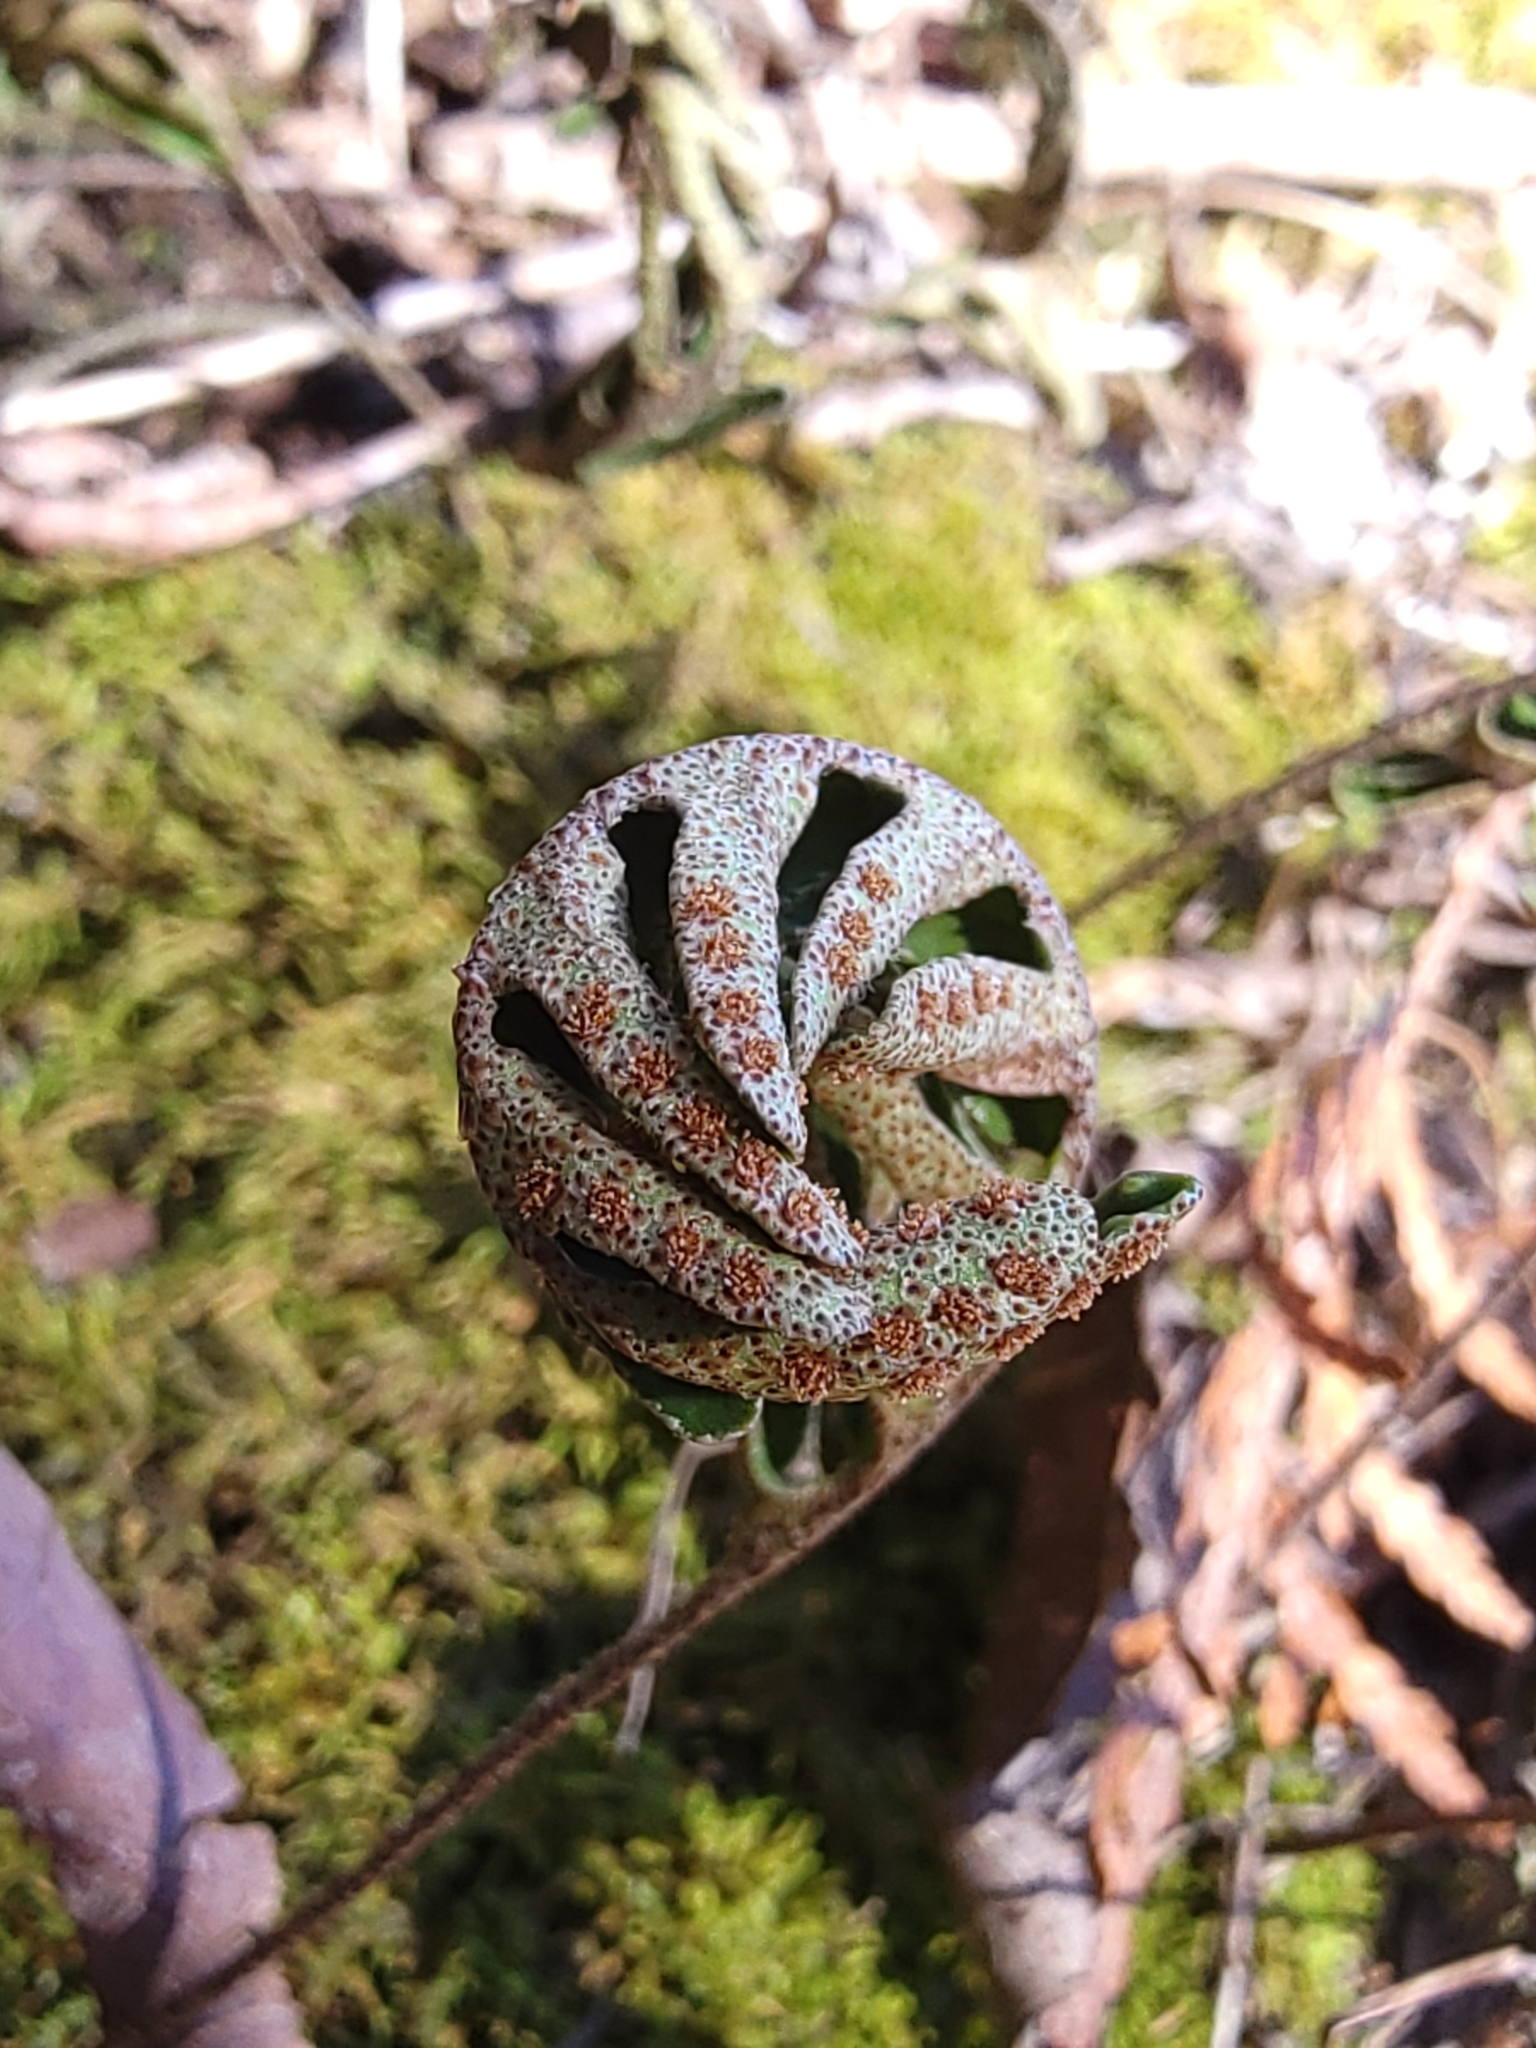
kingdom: Plantae
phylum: Tracheophyta
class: Polypodiopsida
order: Polypodiales
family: Polypodiaceae
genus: Pleopeltis
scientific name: Pleopeltis michauxiana
